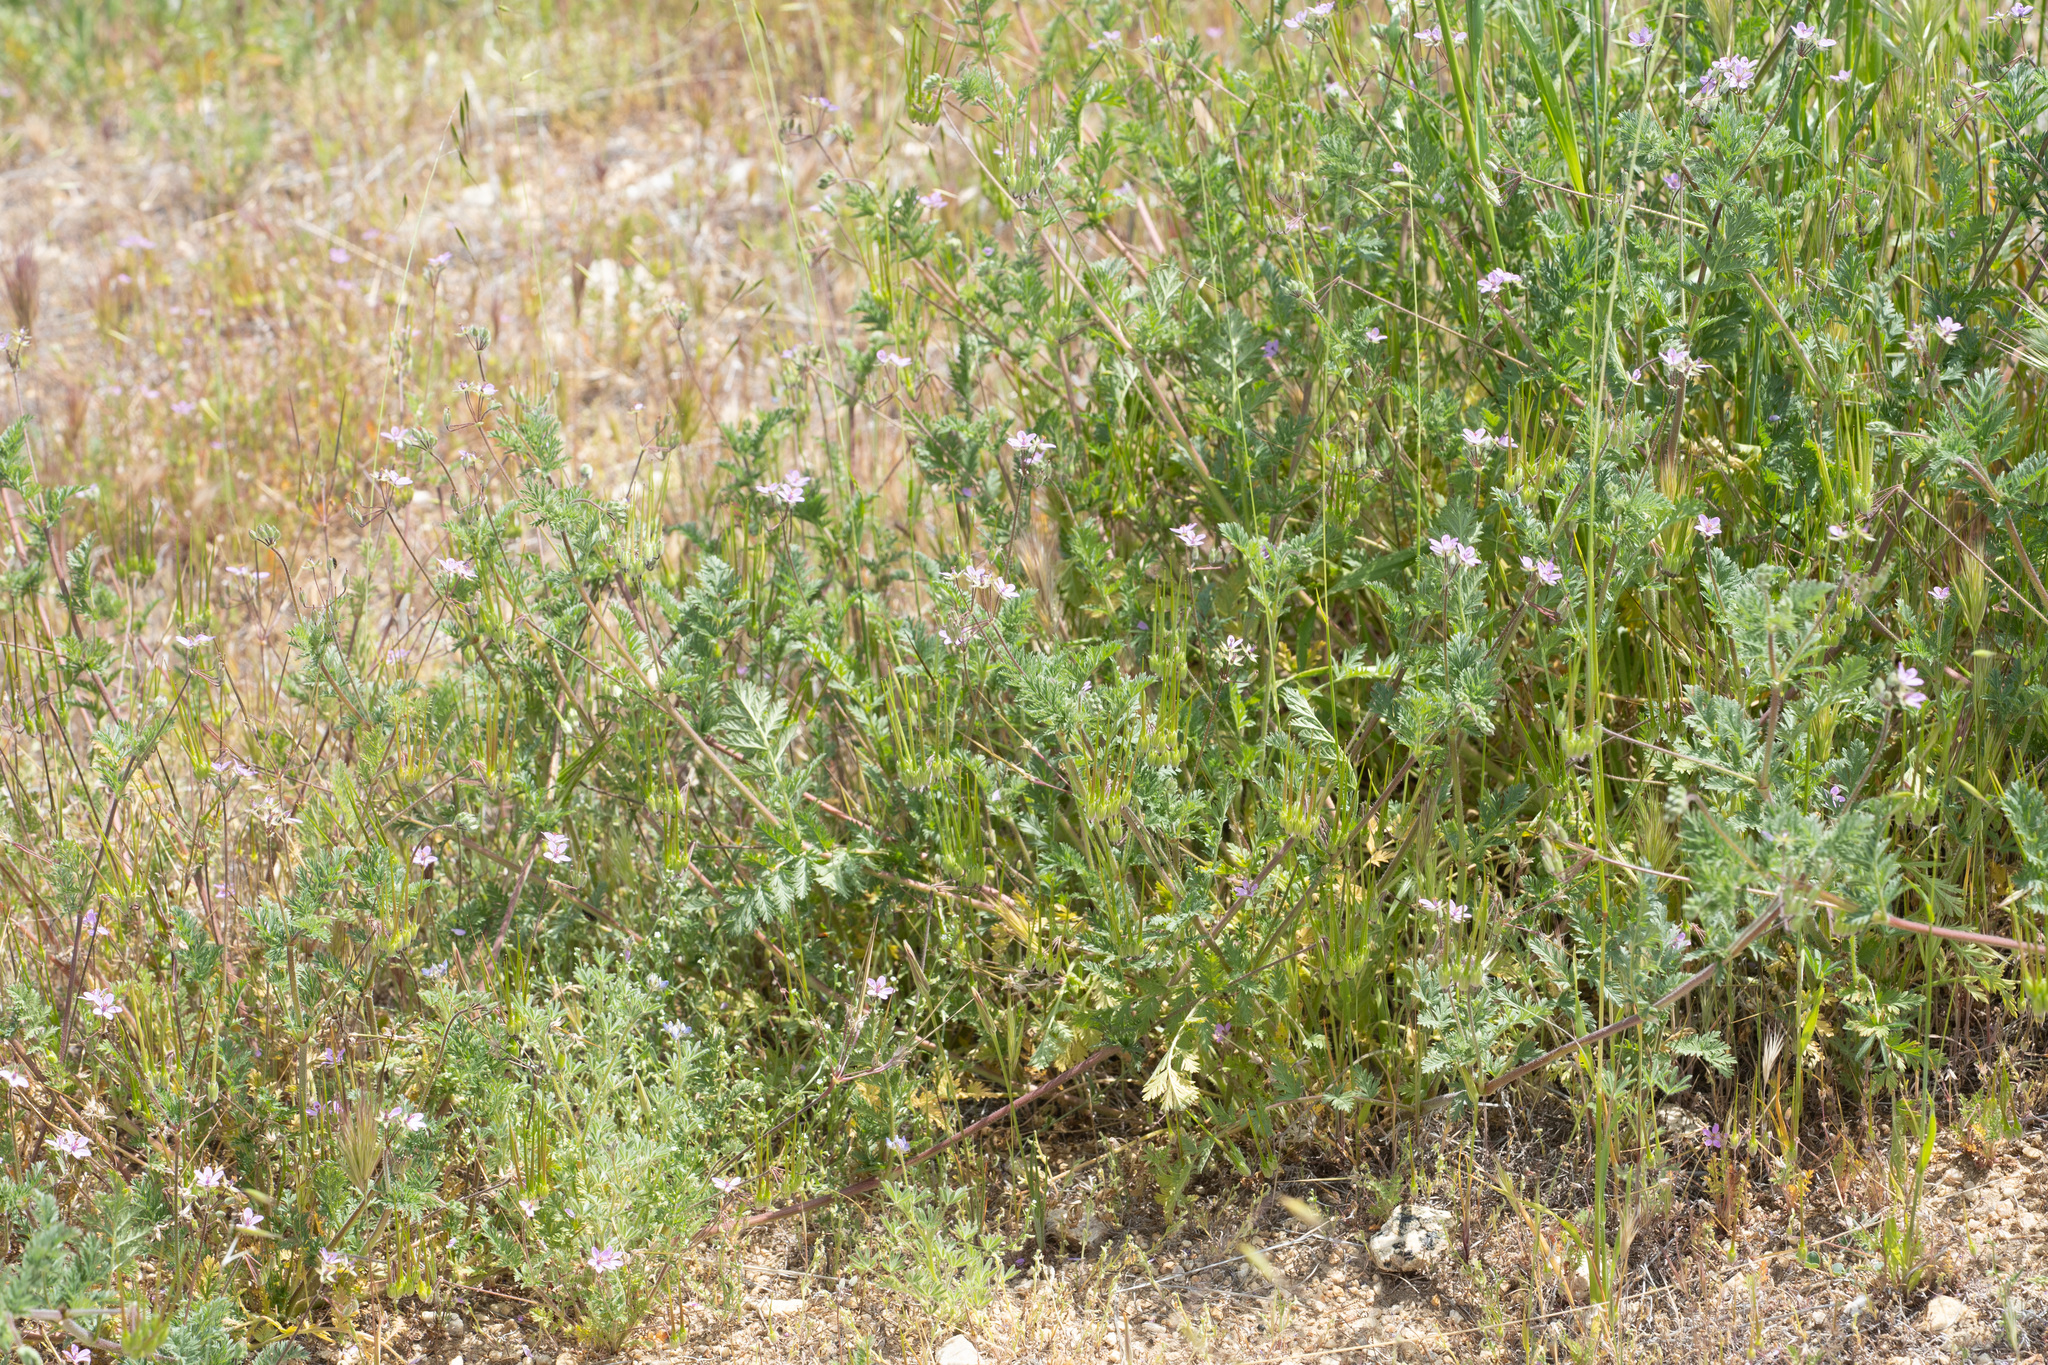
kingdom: Plantae
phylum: Tracheophyta
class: Magnoliopsida
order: Geraniales
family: Geraniaceae
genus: Erodium
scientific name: Erodium cicutarium
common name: Common stork's-bill
